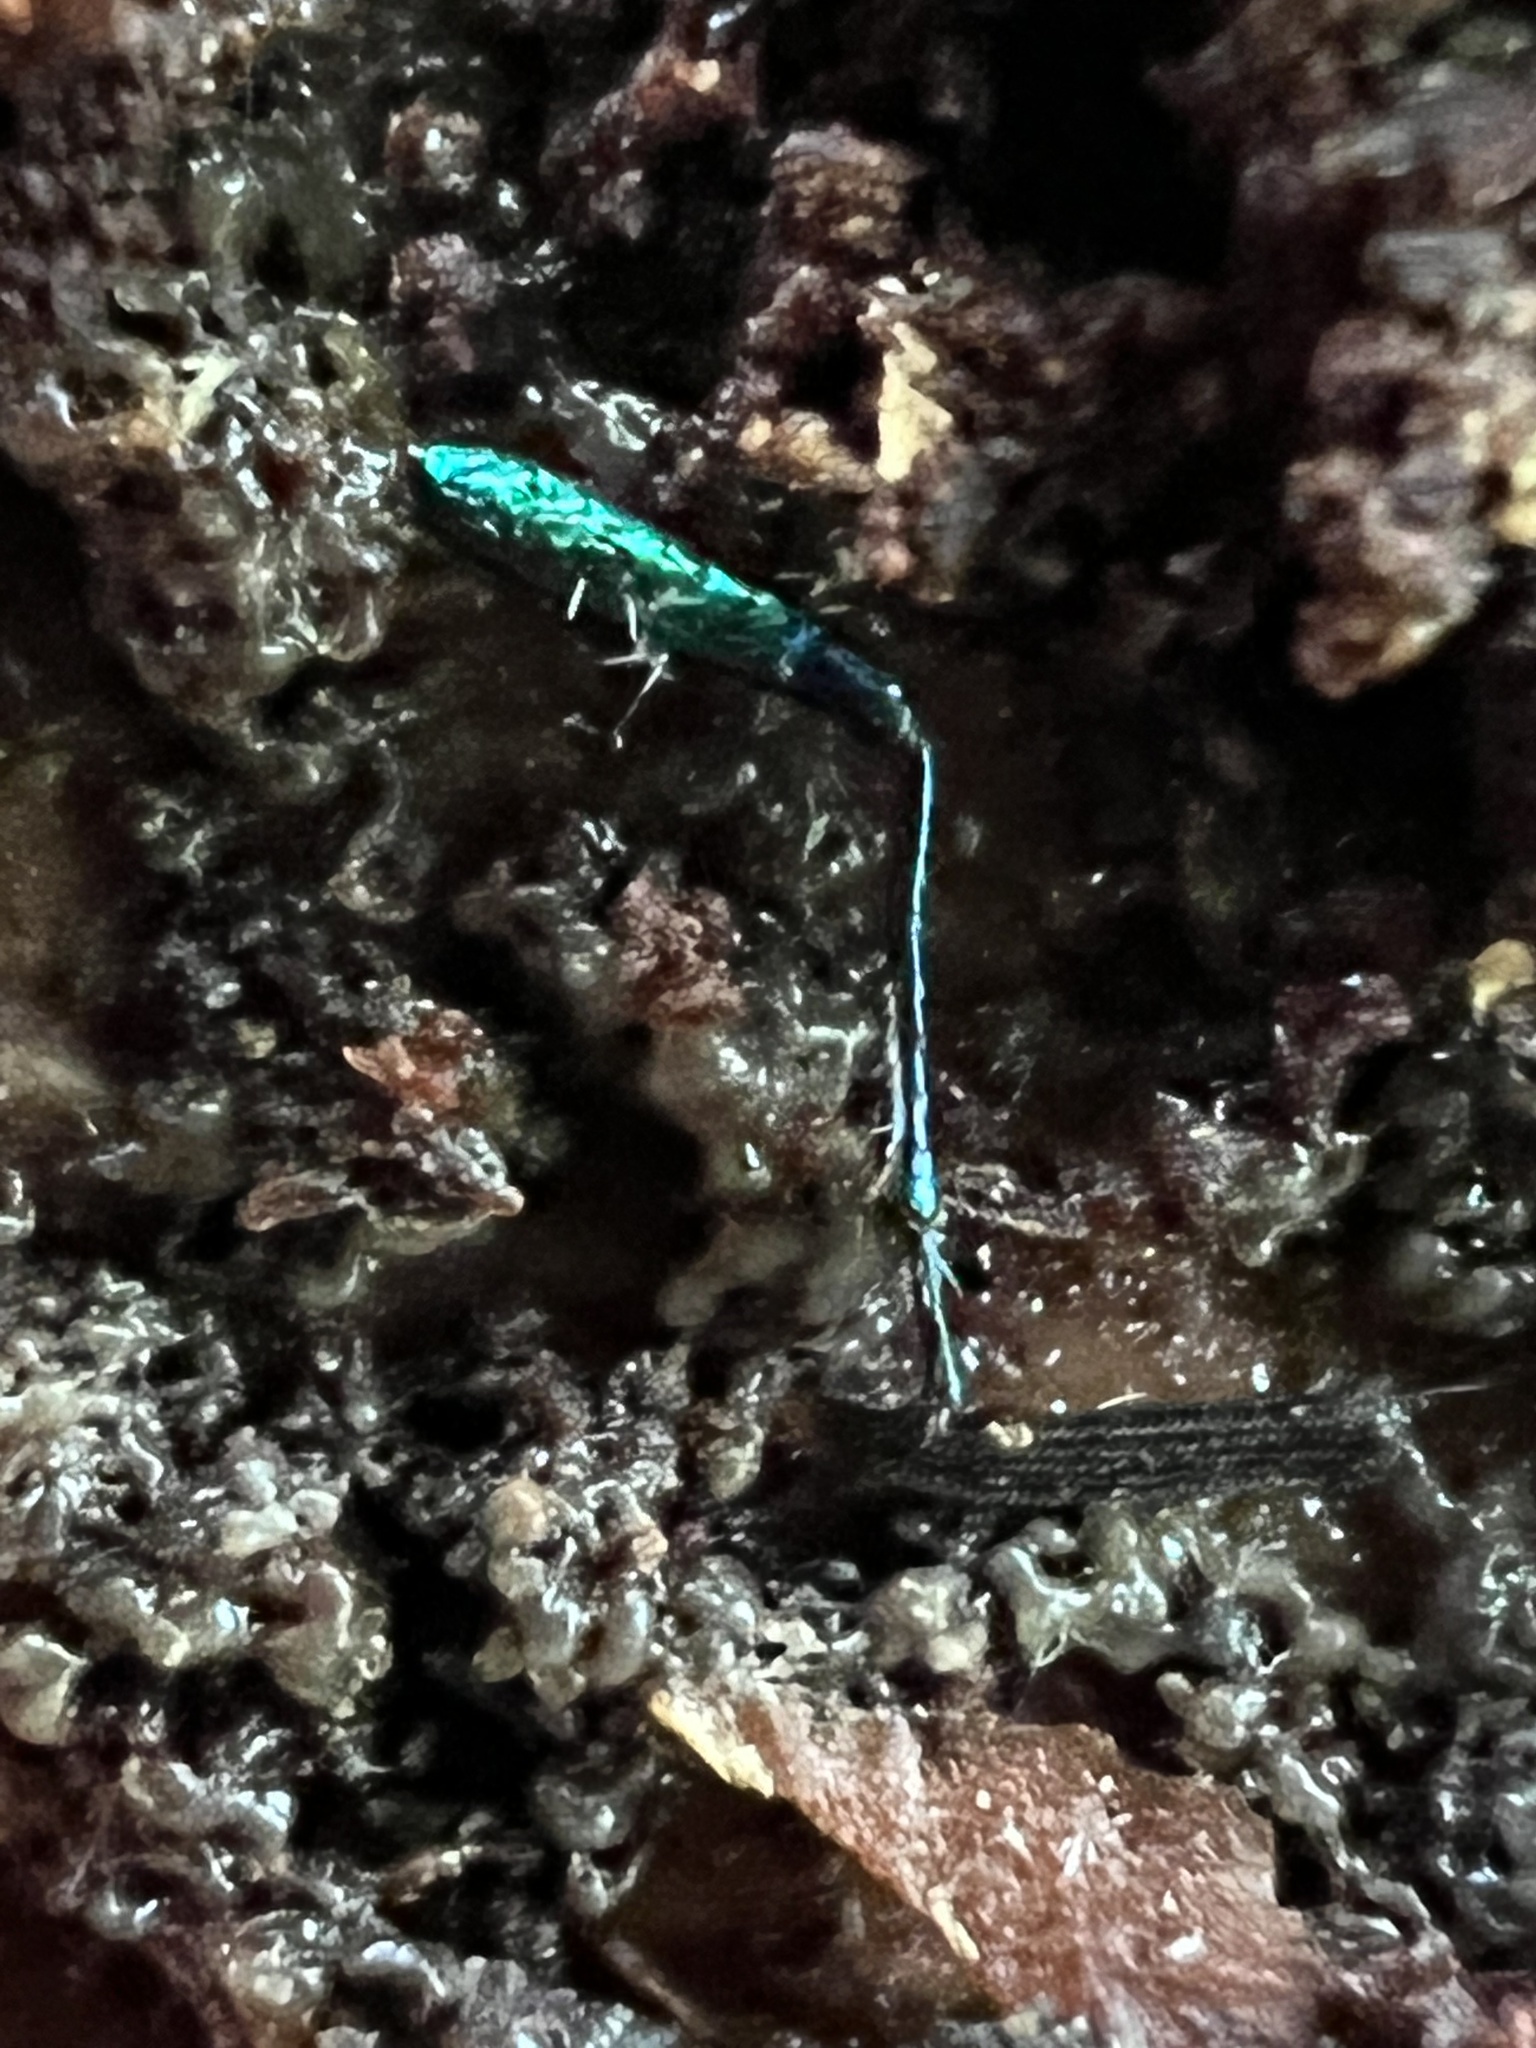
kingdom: Animalia
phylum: Arthropoda
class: Insecta
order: Coleoptera
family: Carabidae
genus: Cicindela
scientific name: Cicindela sexguttata
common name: Six-spotted tiger beetle
